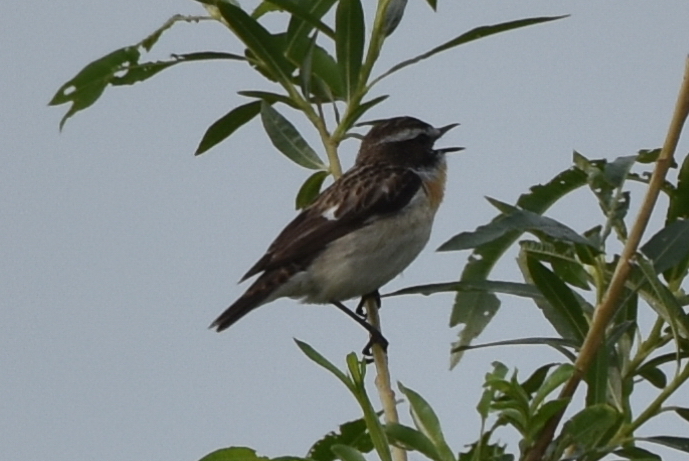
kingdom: Animalia
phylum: Chordata
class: Aves
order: Passeriformes
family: Muscicapidae
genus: Saxicola
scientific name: Saxicola rubetra
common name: Whinchat
